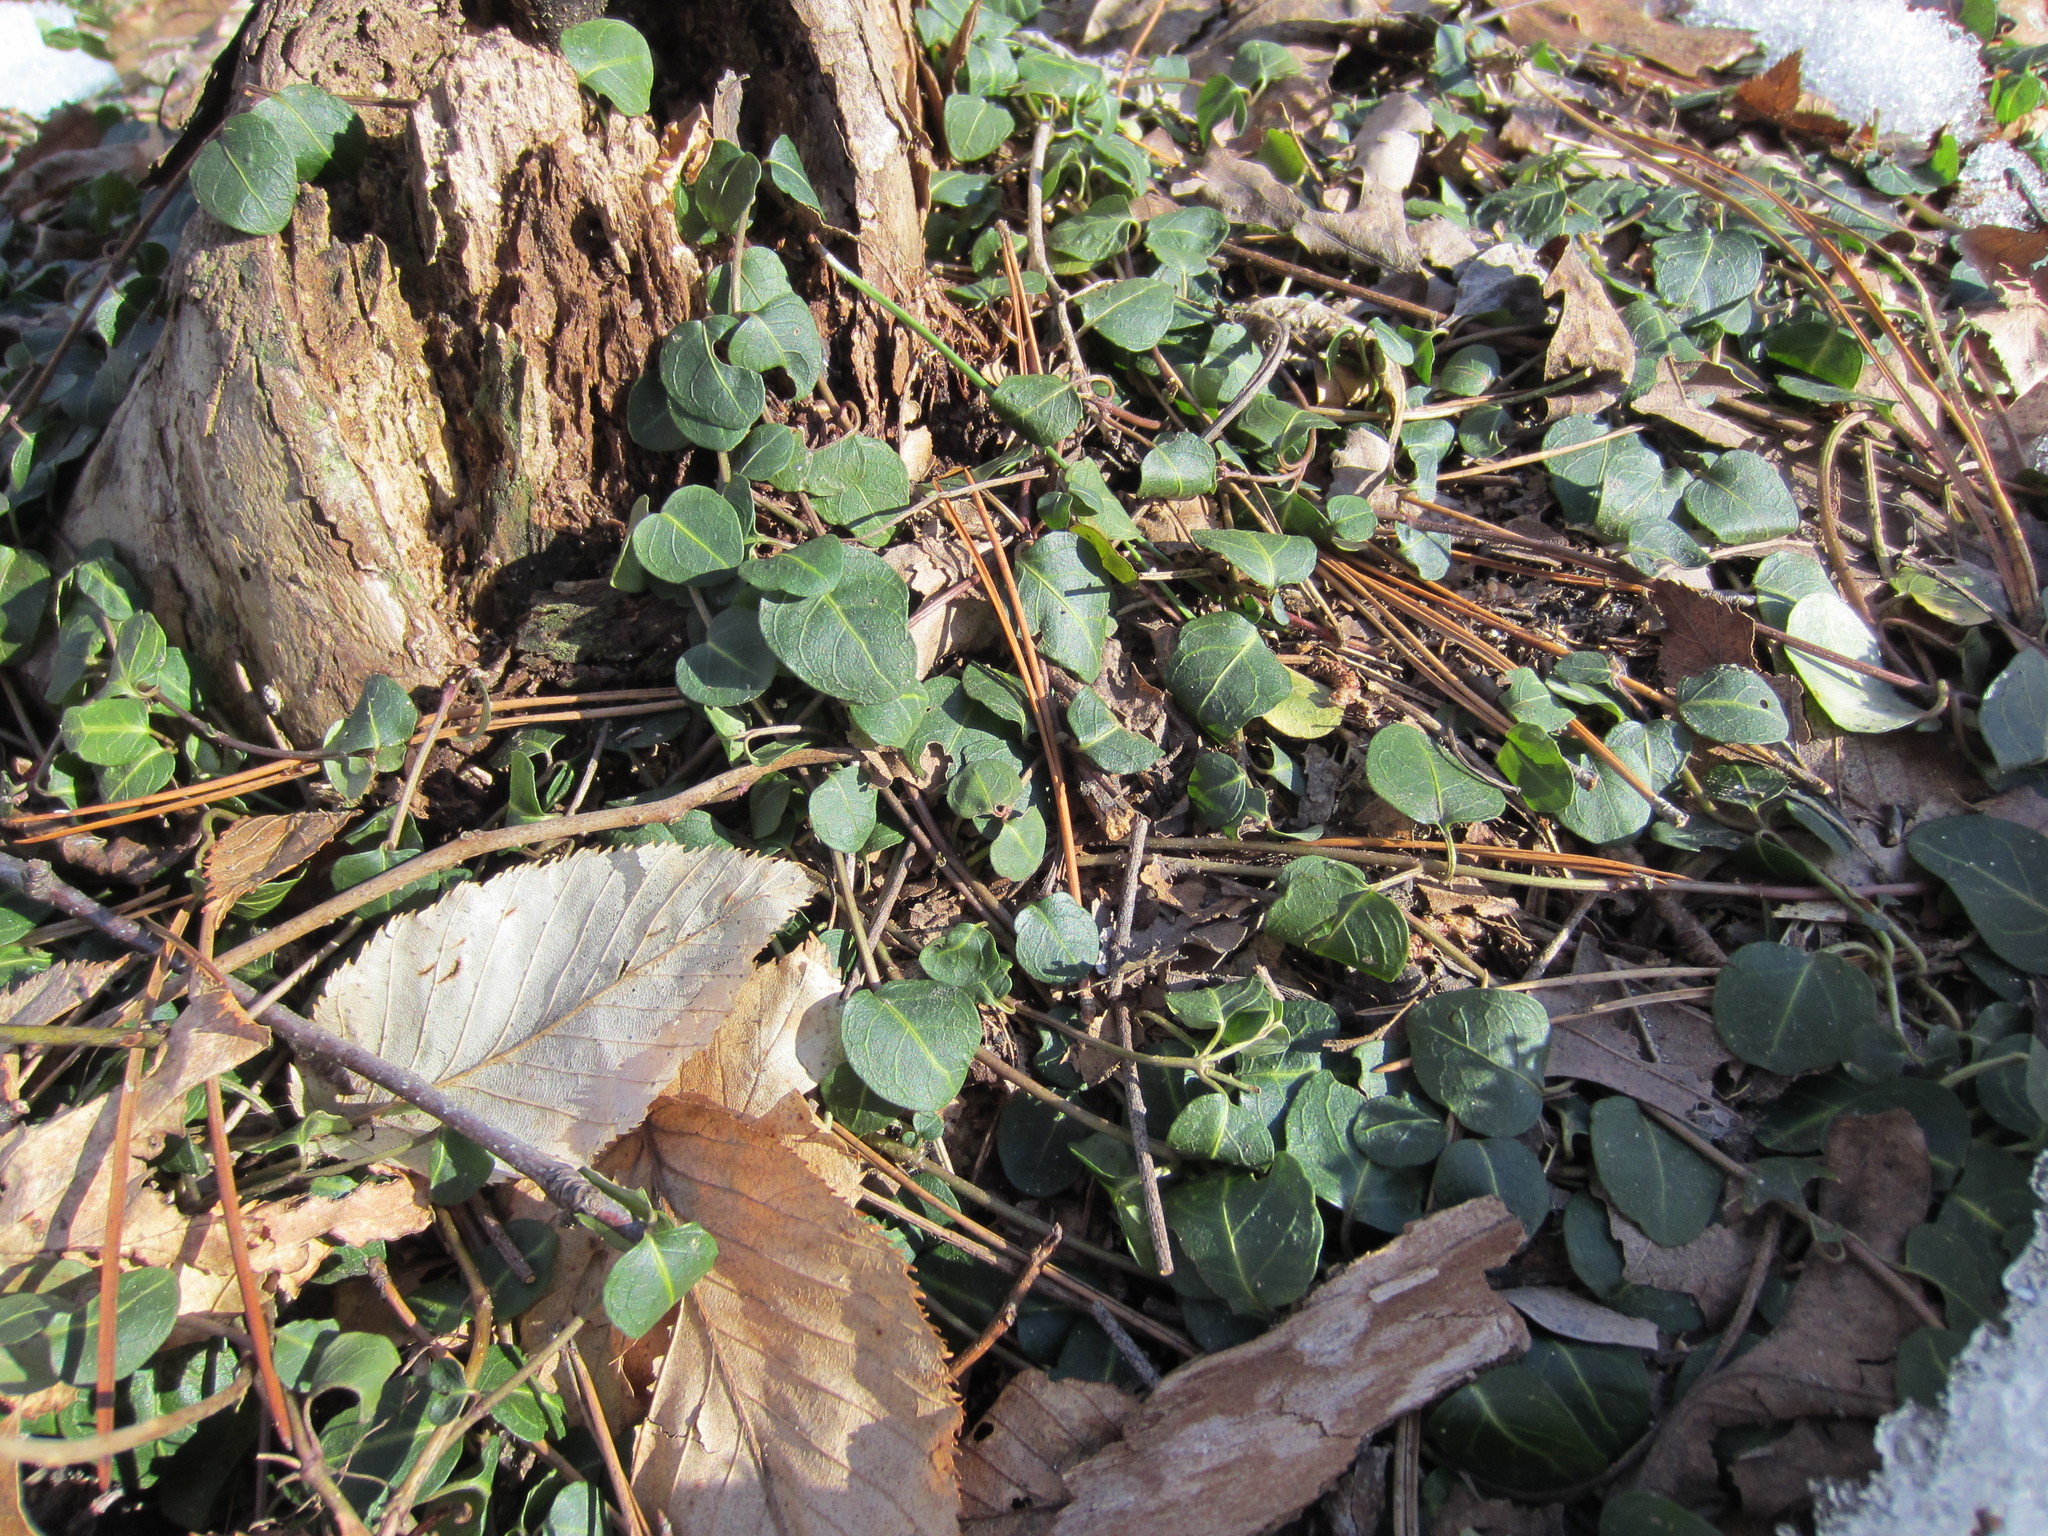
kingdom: Plantae
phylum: Tracheophyta
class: Magnoliopsida
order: Gentianales
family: Rubiaceae
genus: Mitchella
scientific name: Mitchella repens
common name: Partridge-berry
